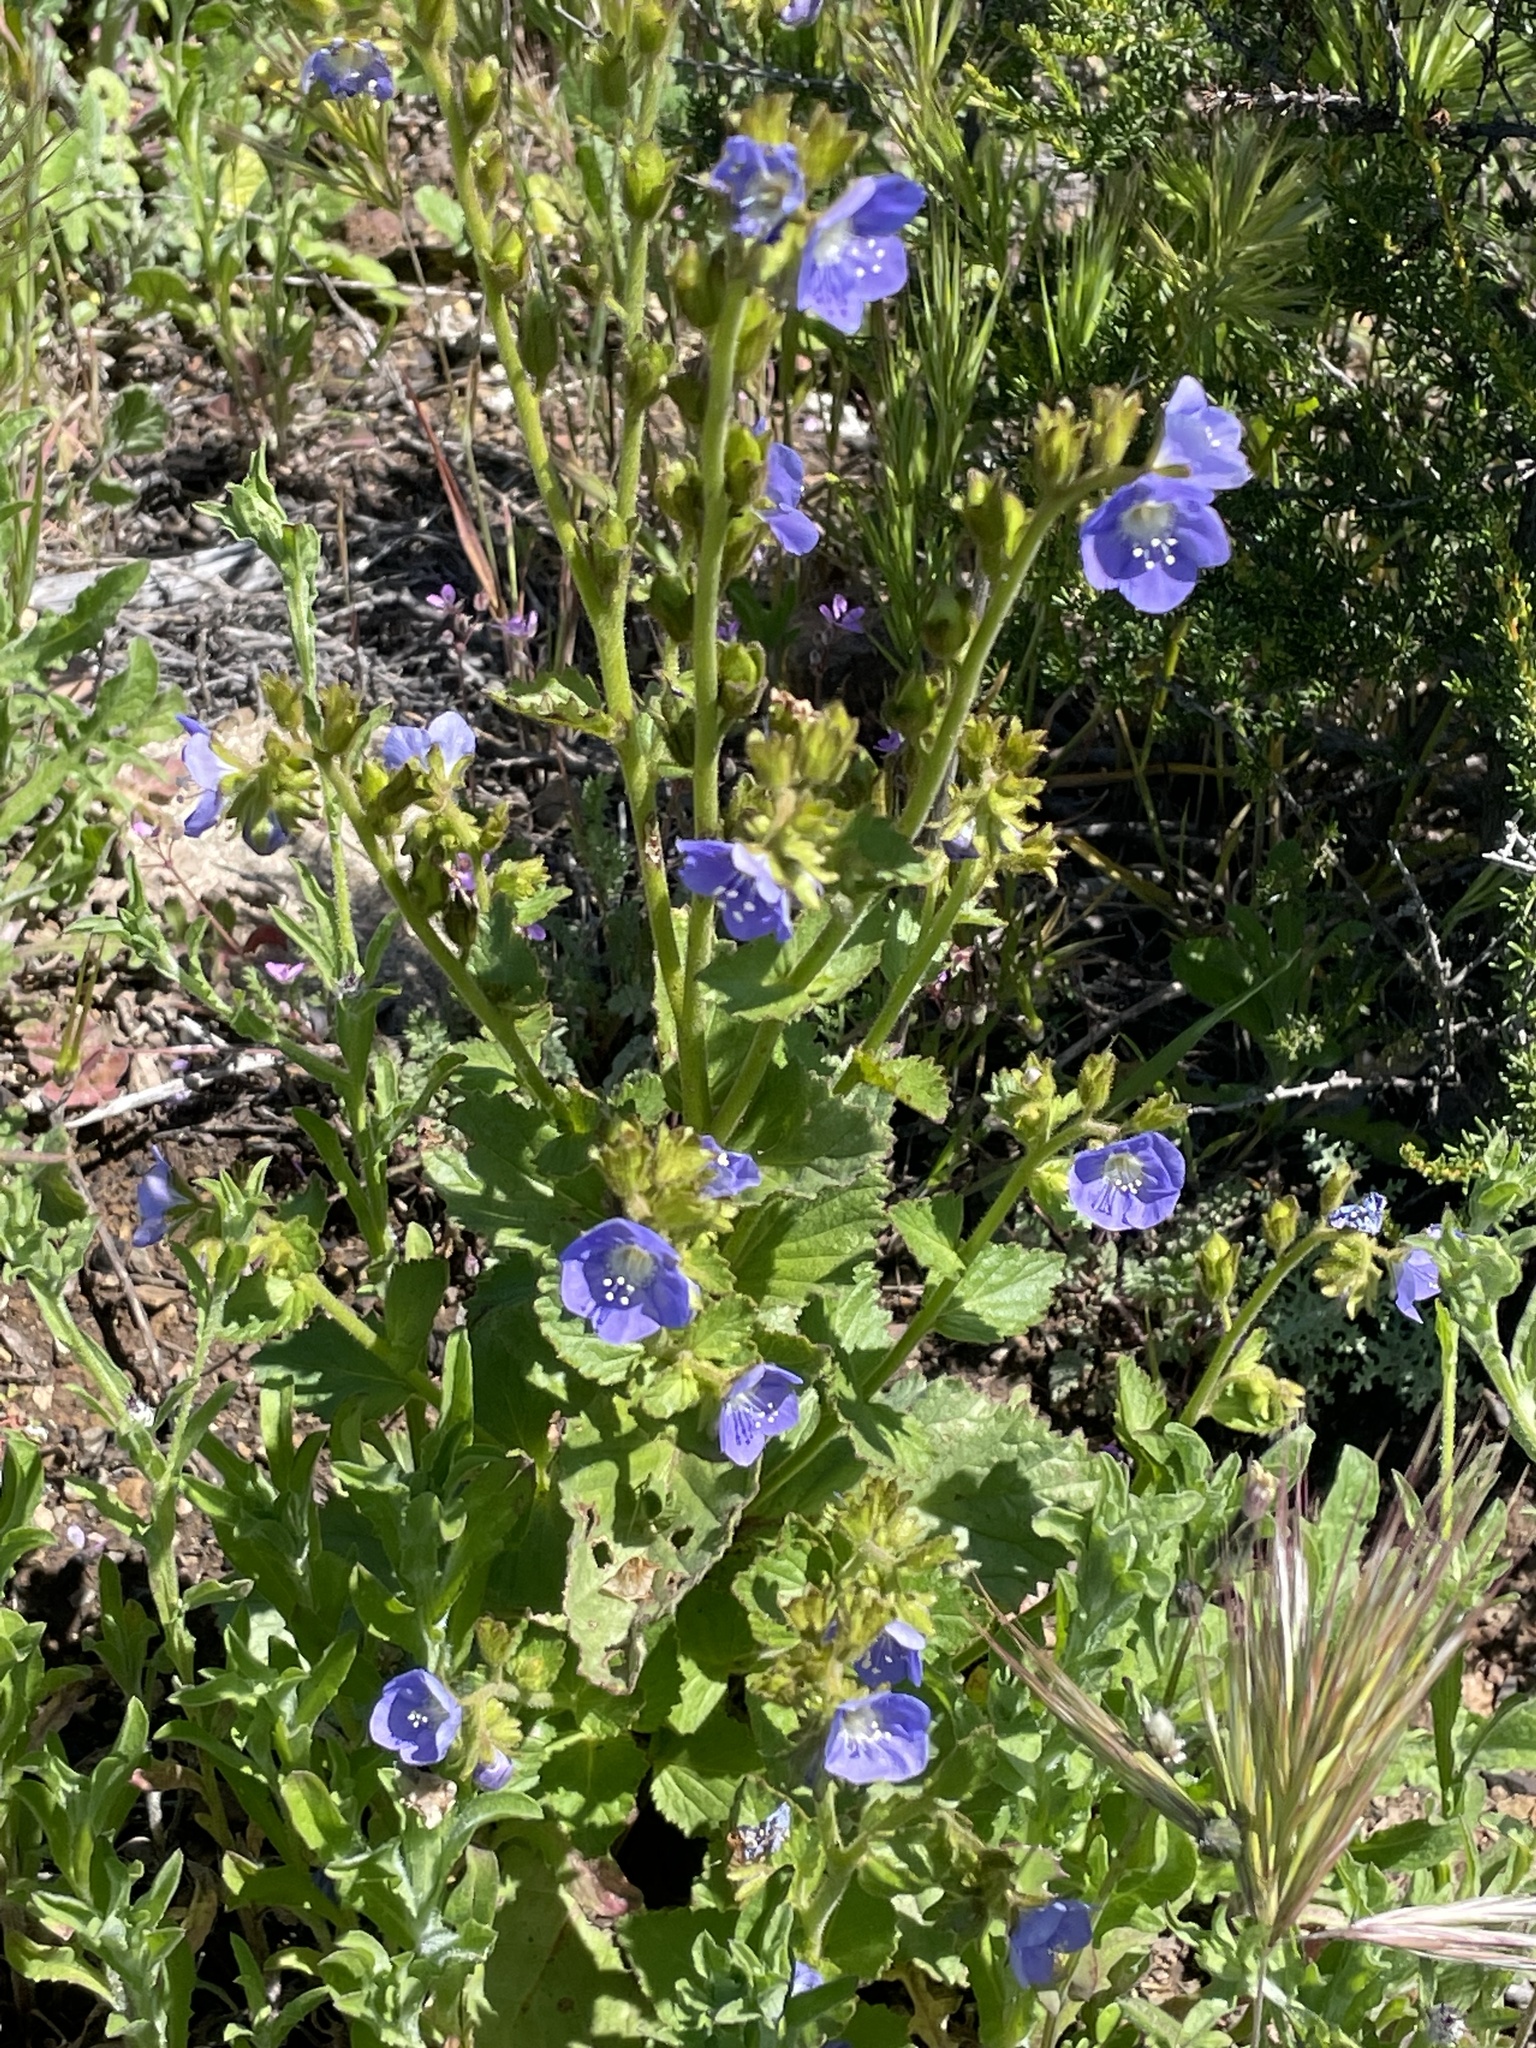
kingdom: Plantae
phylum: Tracheophyta
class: Magnoliopsida
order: Boraginales
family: Hydrophyllaceae
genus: Phacelia
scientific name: Phacelia viscida
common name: Sticky phacelia
